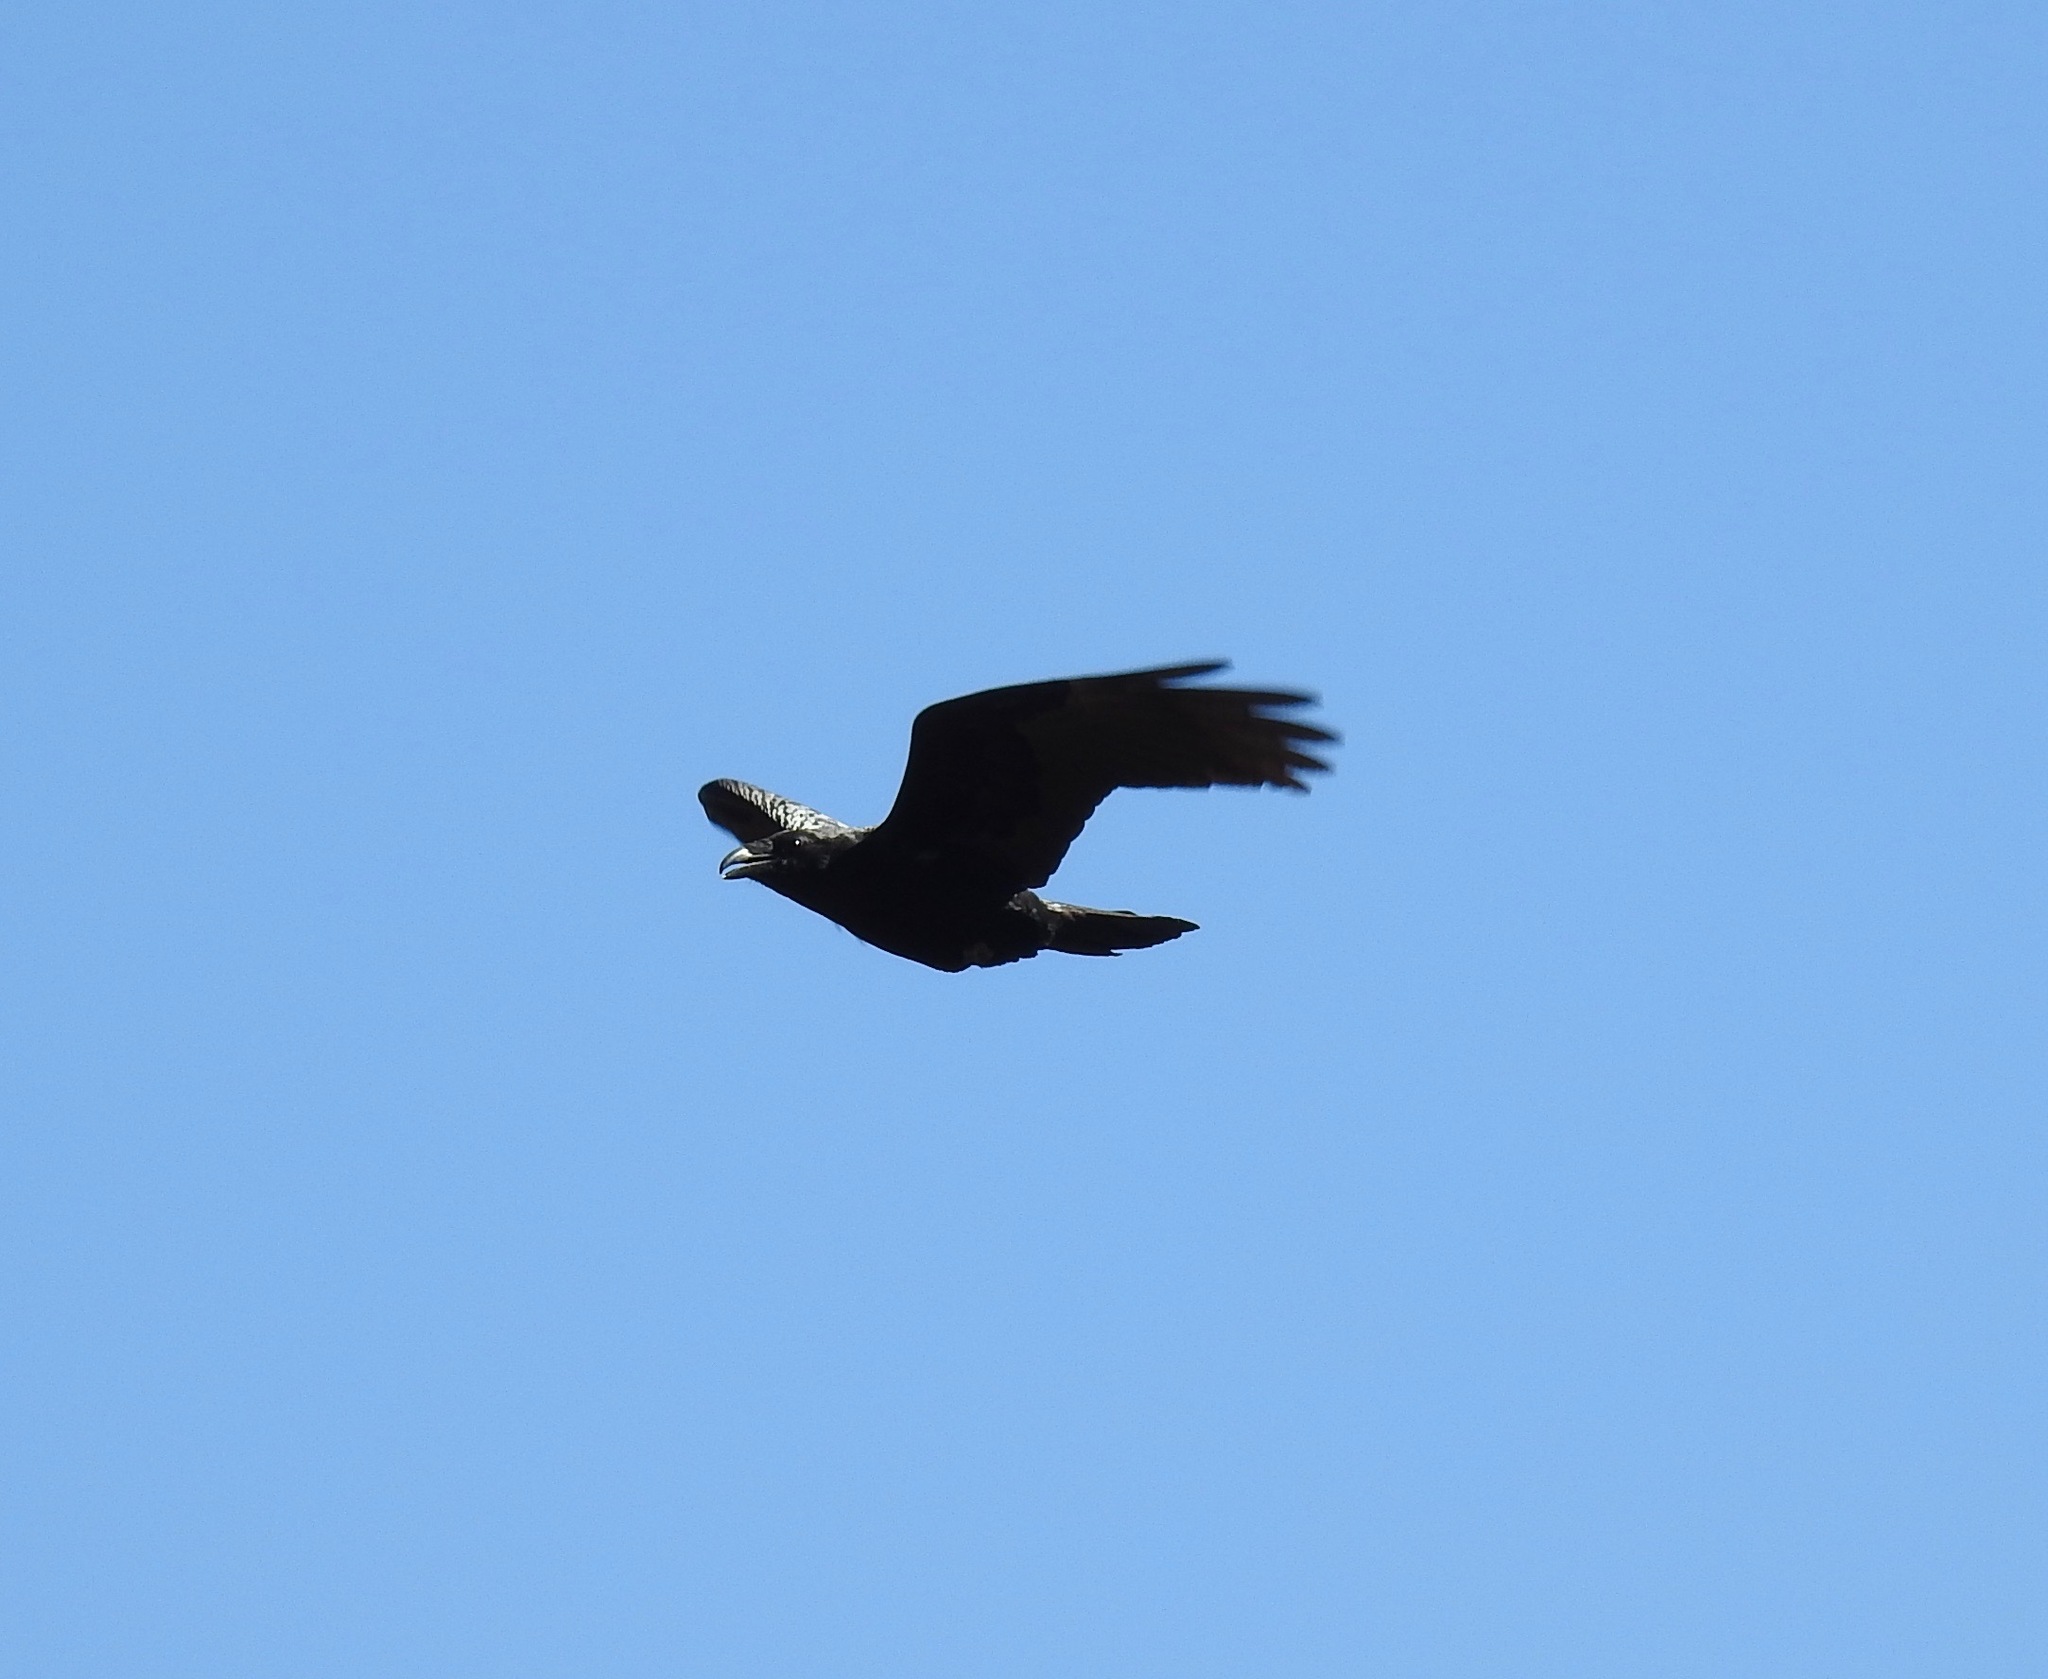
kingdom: Animalia
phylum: Chordata
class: Aves
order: Passeriformes
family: Corvidae
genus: Corvus
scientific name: Corvus corax
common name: Common raven
